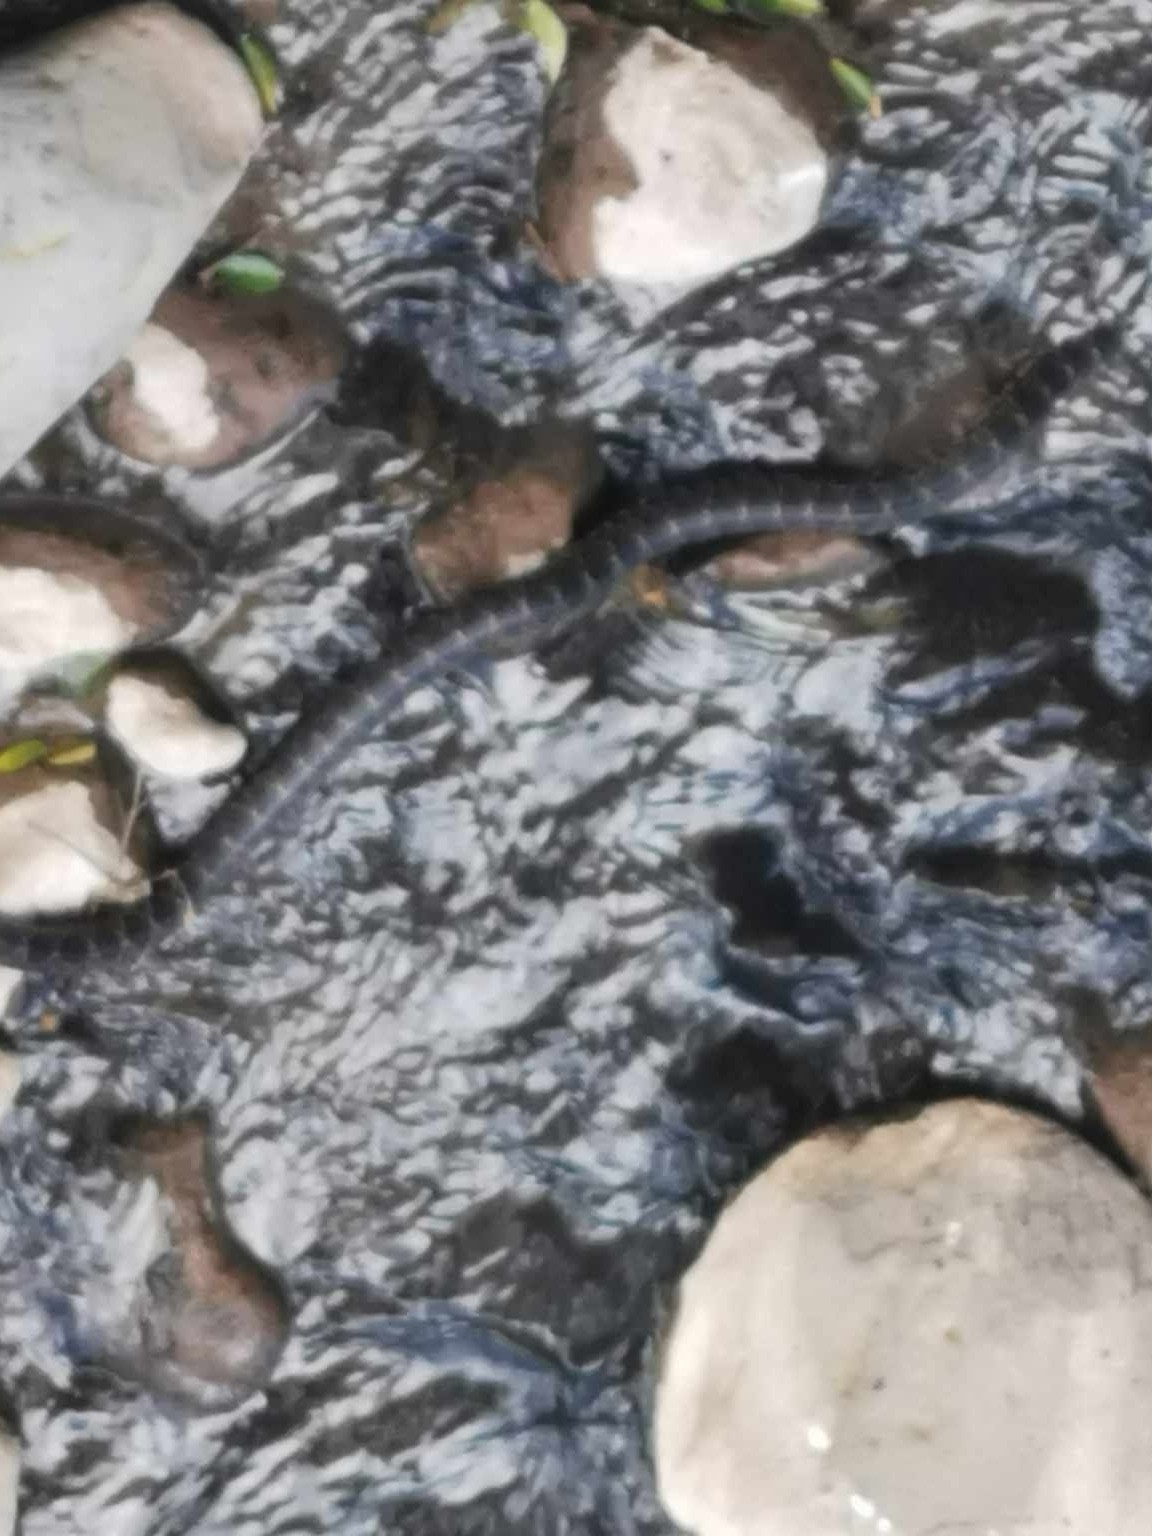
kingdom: Animalia
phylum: Chordata
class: Squamata
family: Colubridae
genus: Hemorrhois
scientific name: Hemorrhois hippocrepis
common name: Horseshoe whip snake
